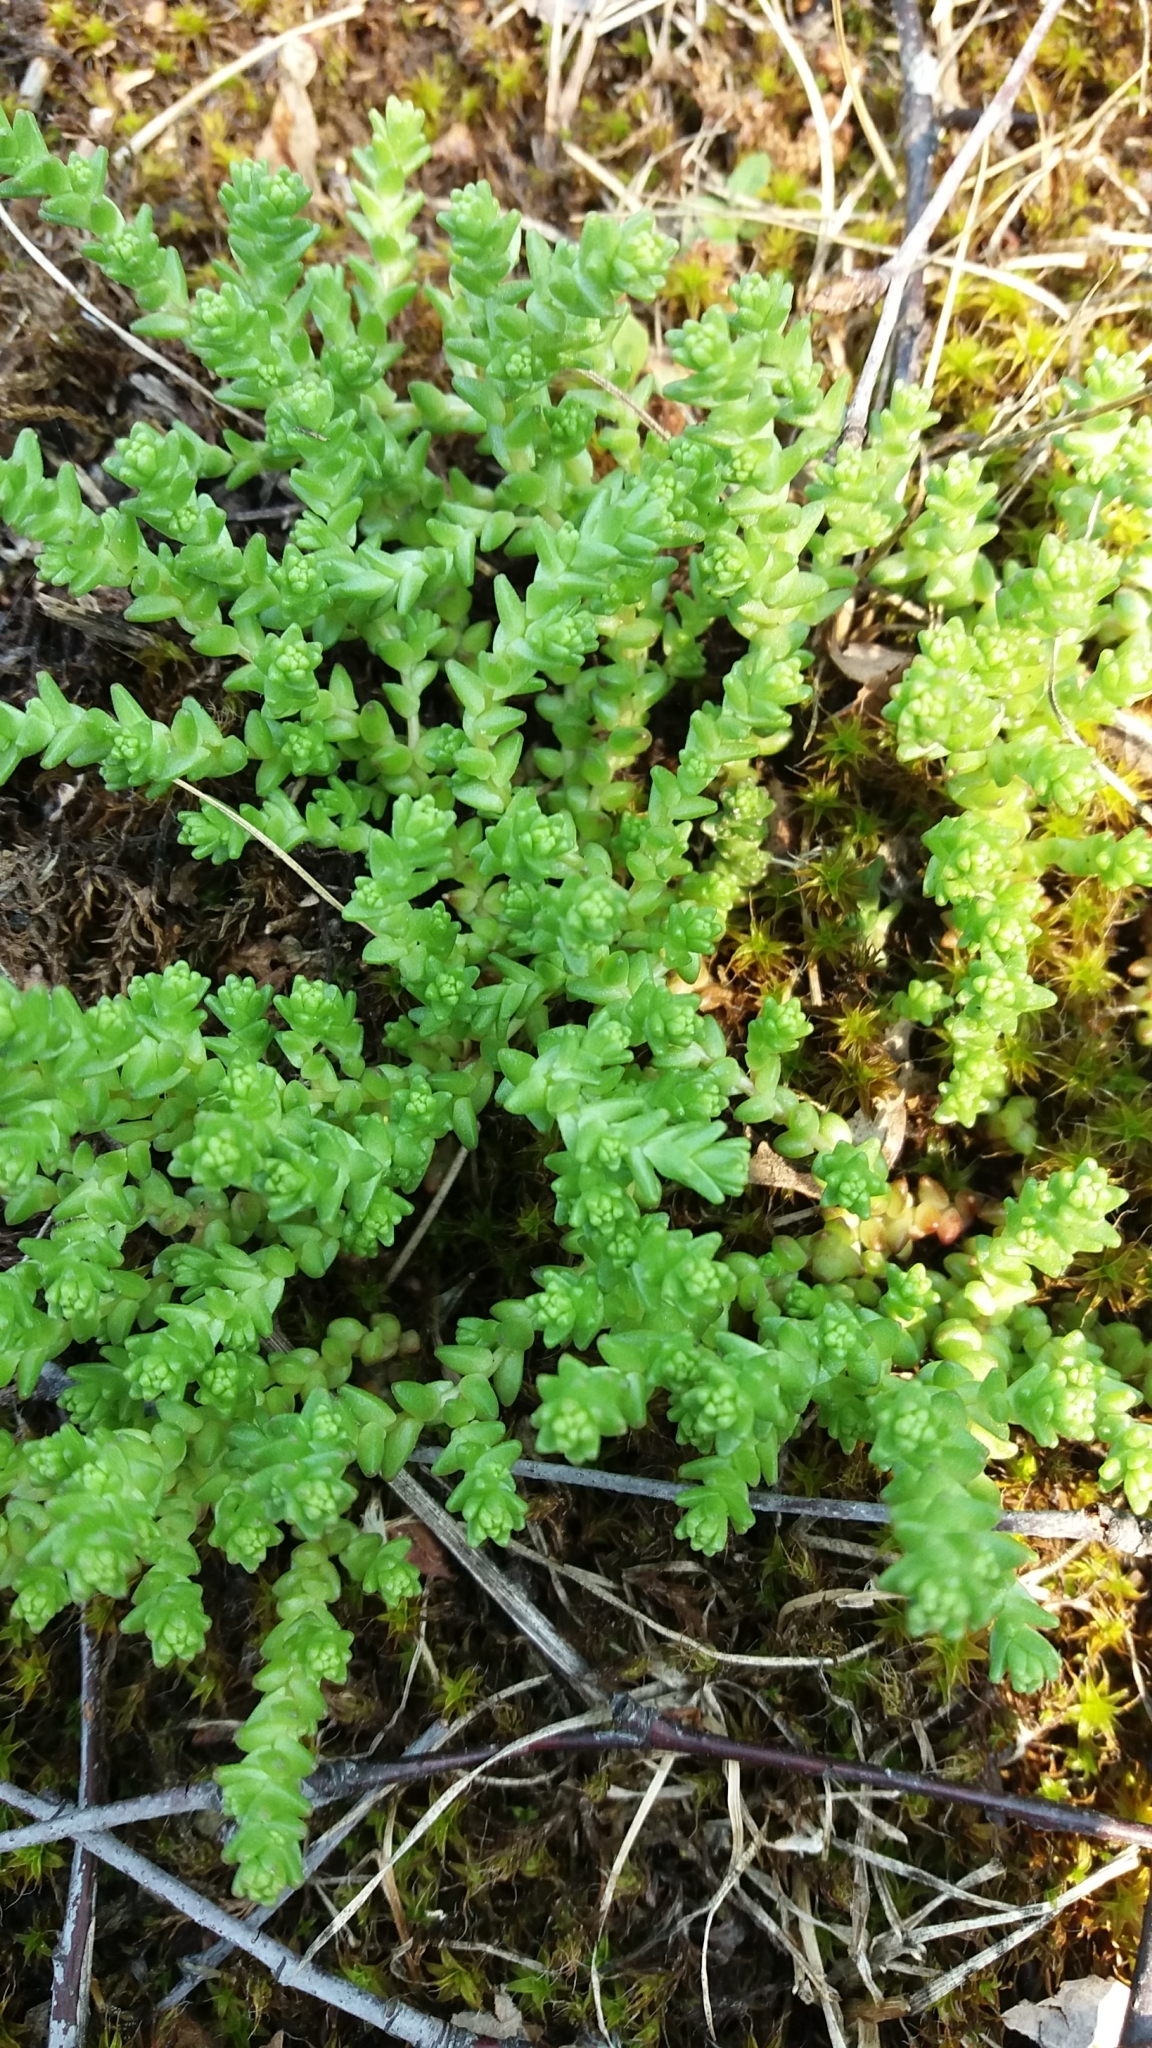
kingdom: Plantae
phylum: Tracheophyta
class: Magnoliopsida
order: Saxifragales
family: Crassulaceae
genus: Sedum
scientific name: Sedum acre
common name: Biting stonecrop
